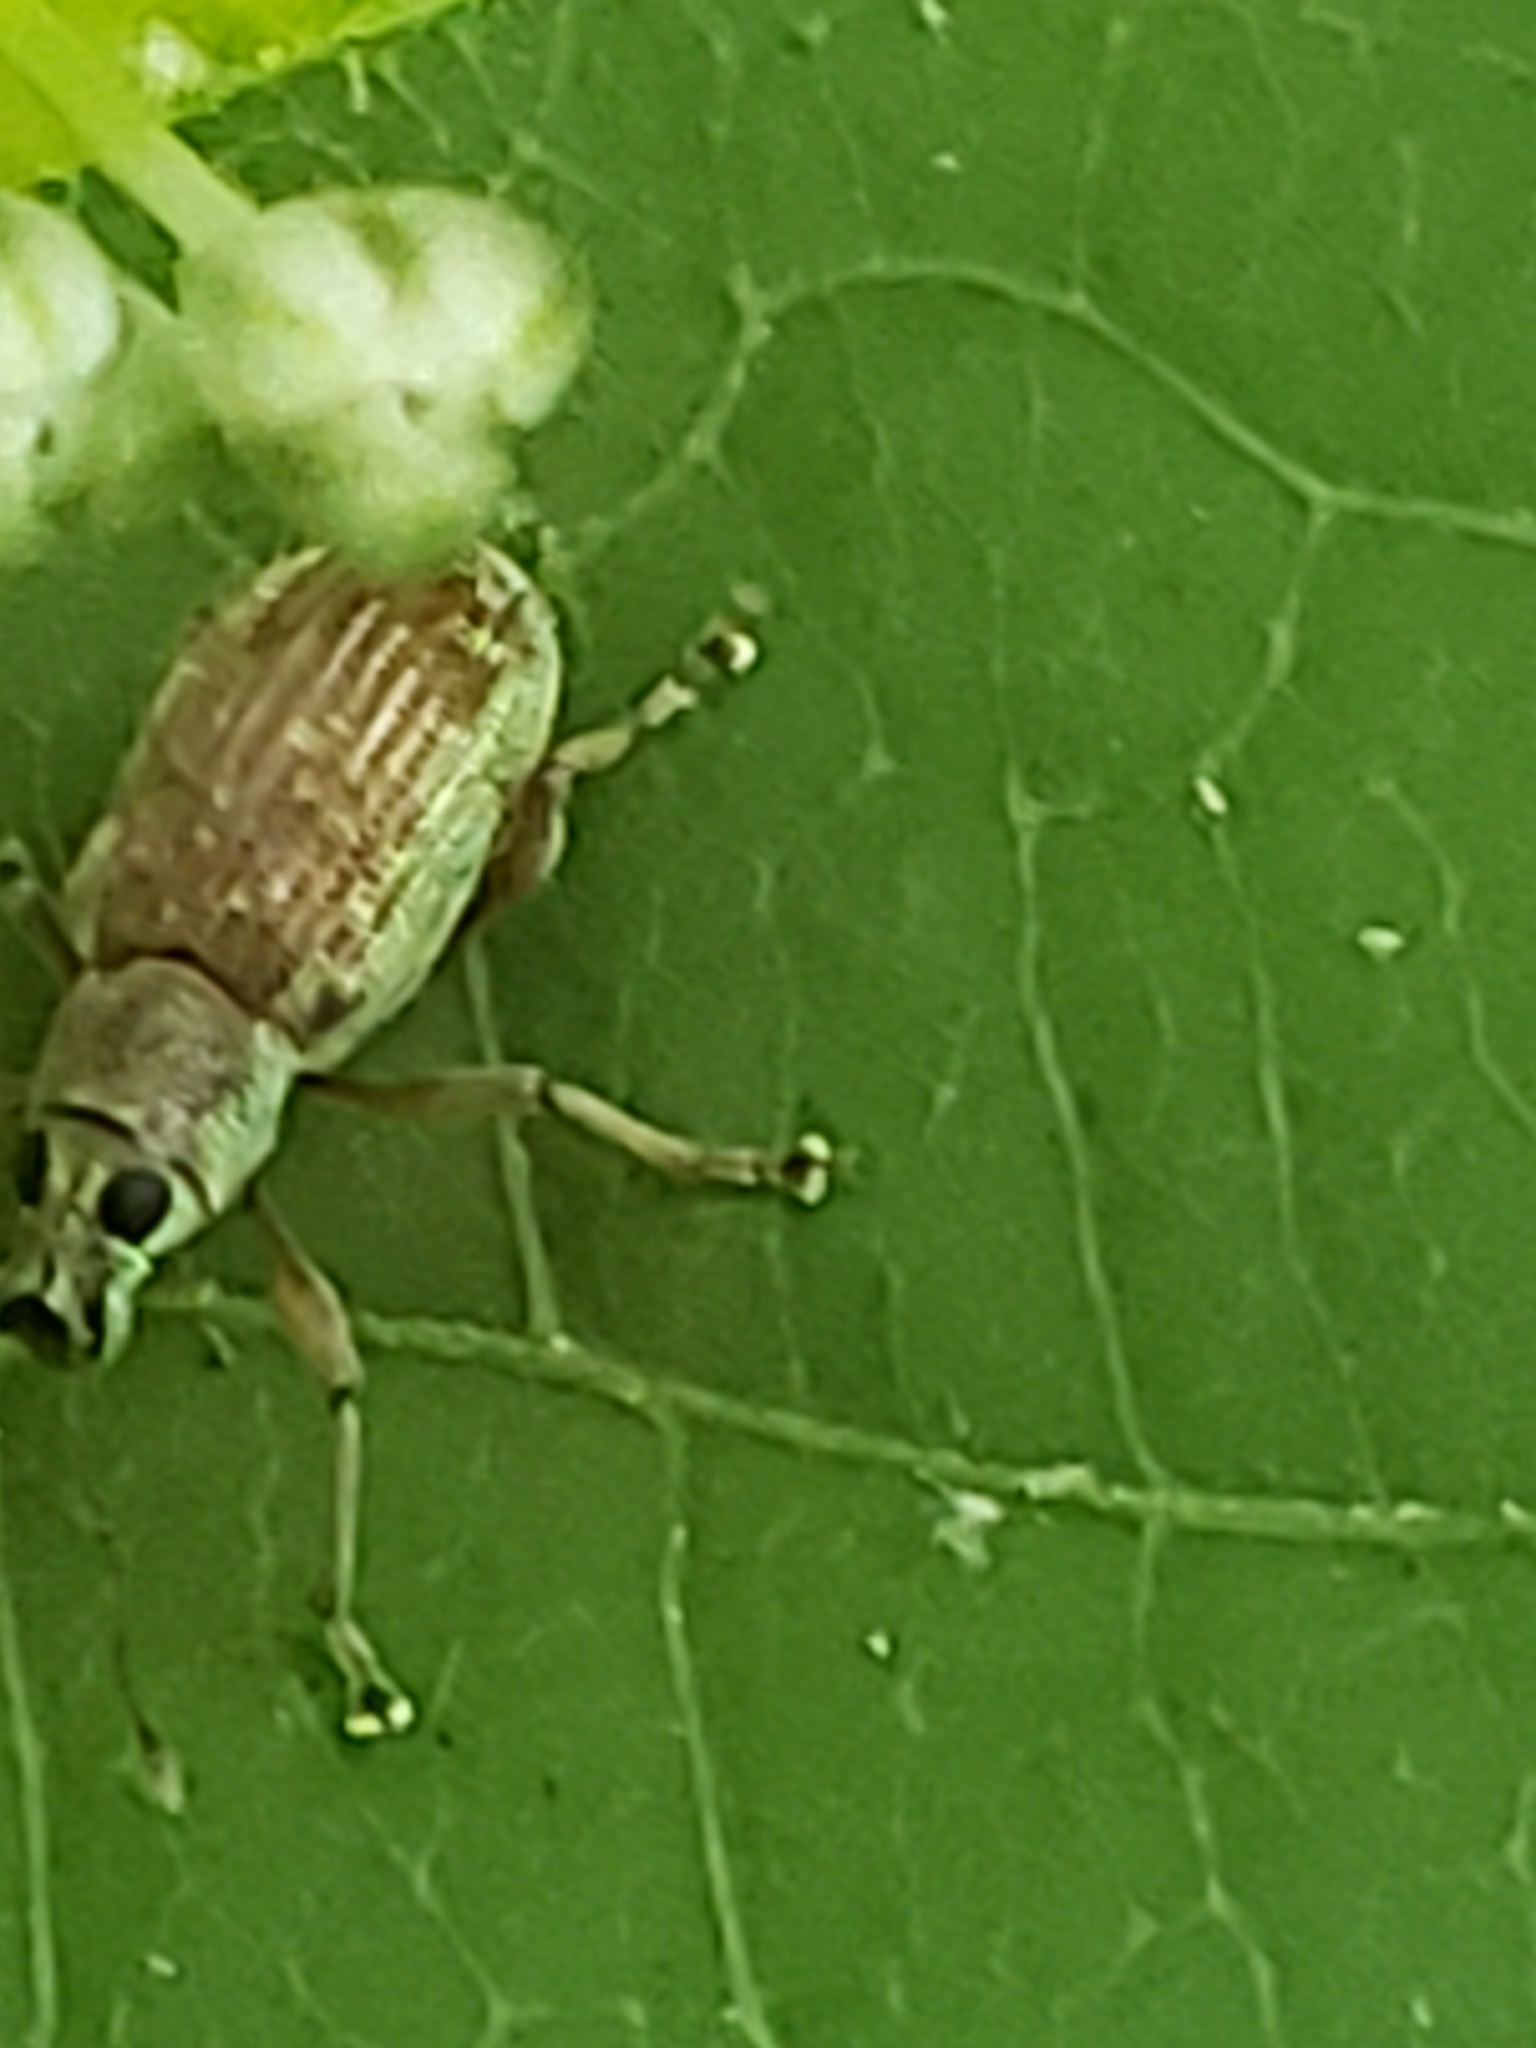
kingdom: Animalia
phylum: Arthropoda
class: Insecta
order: Coleoptera
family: Curculionidae
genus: Cyrtepistomus
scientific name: Cyrtepistomus castaneus
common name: Weevil
